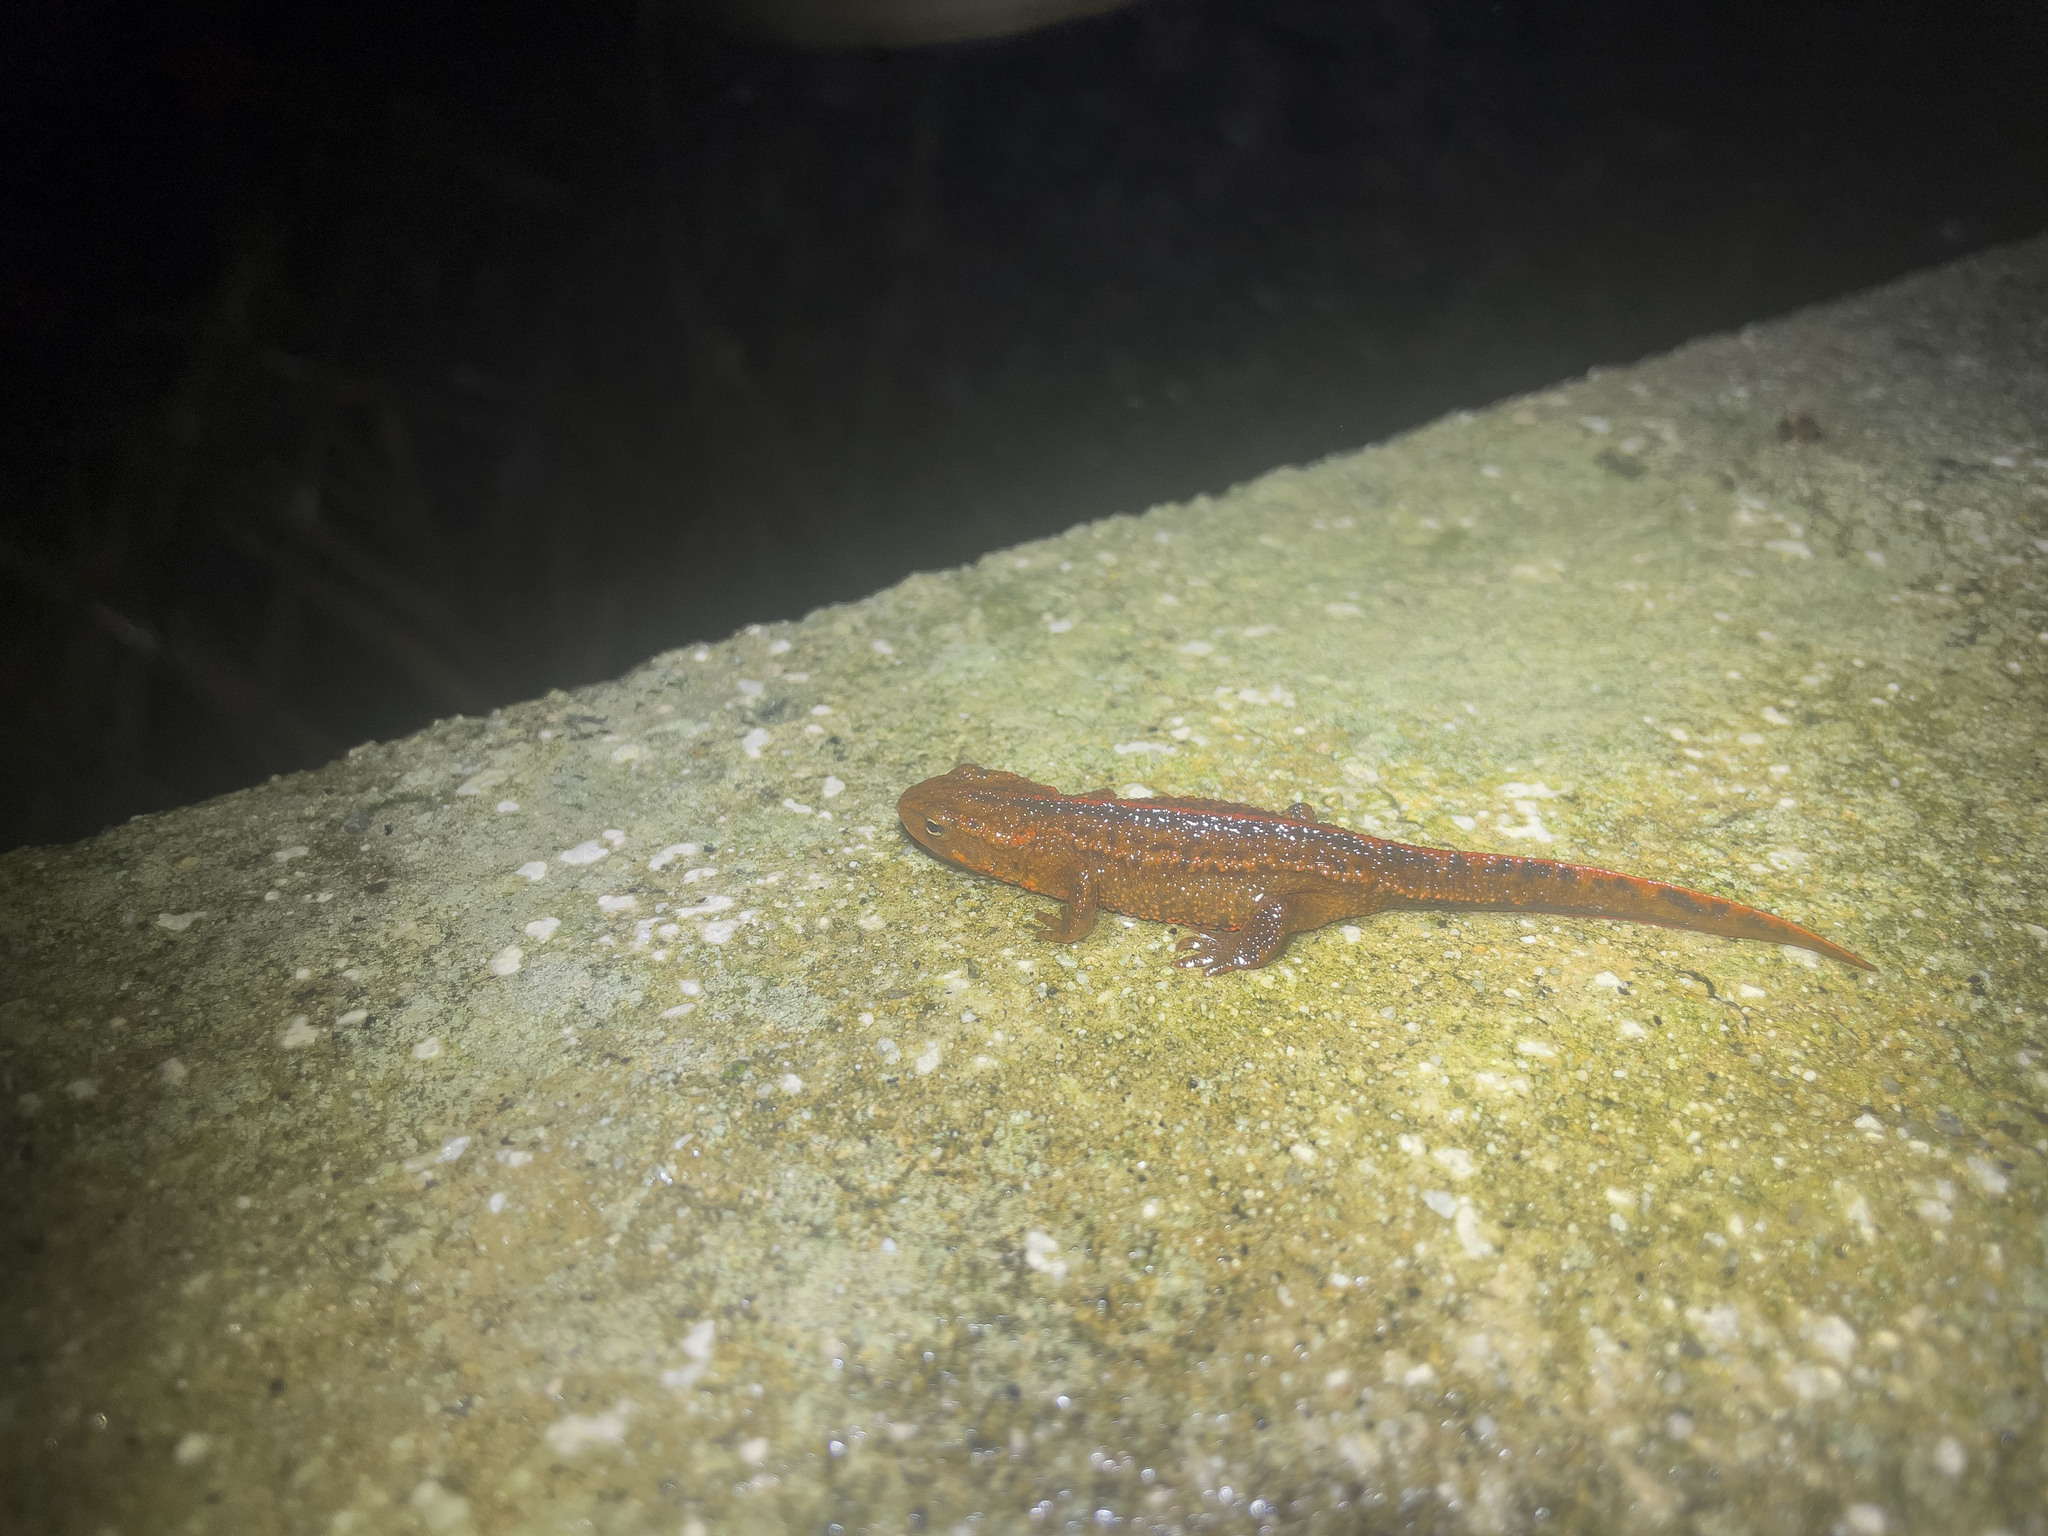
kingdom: Animalia
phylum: Chordata
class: Amphibia
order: Caudata
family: Salamandridae
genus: Paramesotriton
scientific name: Paramesotriton hongkongensis
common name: Hong kong warty newt
